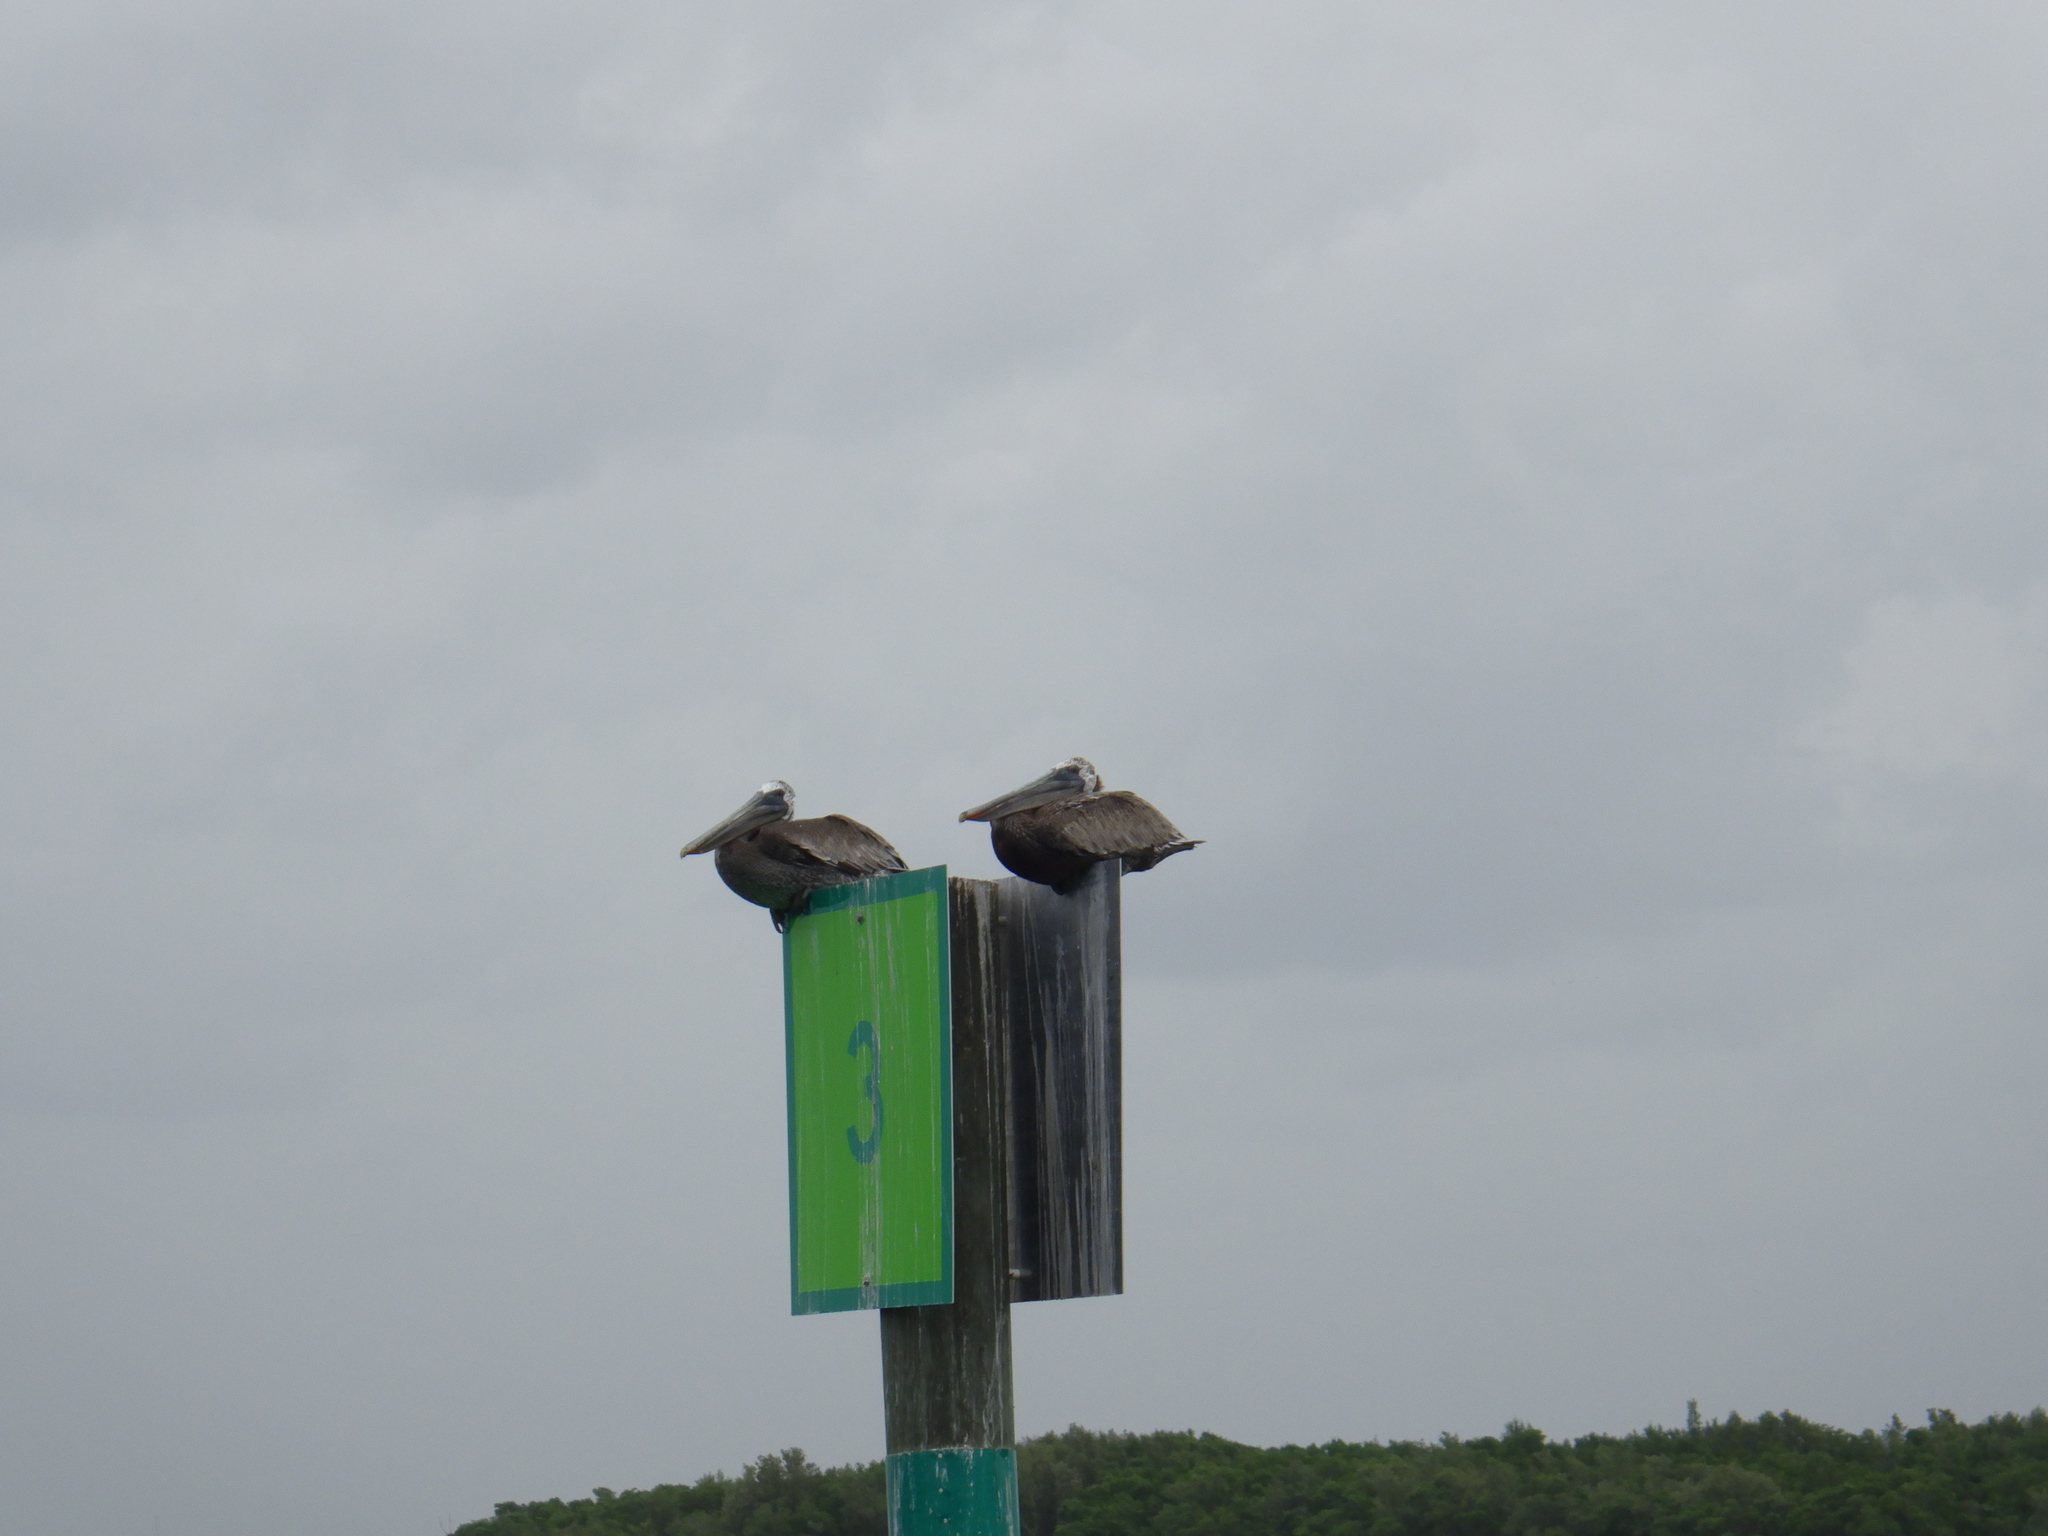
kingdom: Animalia
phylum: Chordata
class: Aves
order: Pelecaniformes
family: Pelecanidae
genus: Pelecanus
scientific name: Pelecanus occidentalis
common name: Brown pelican
